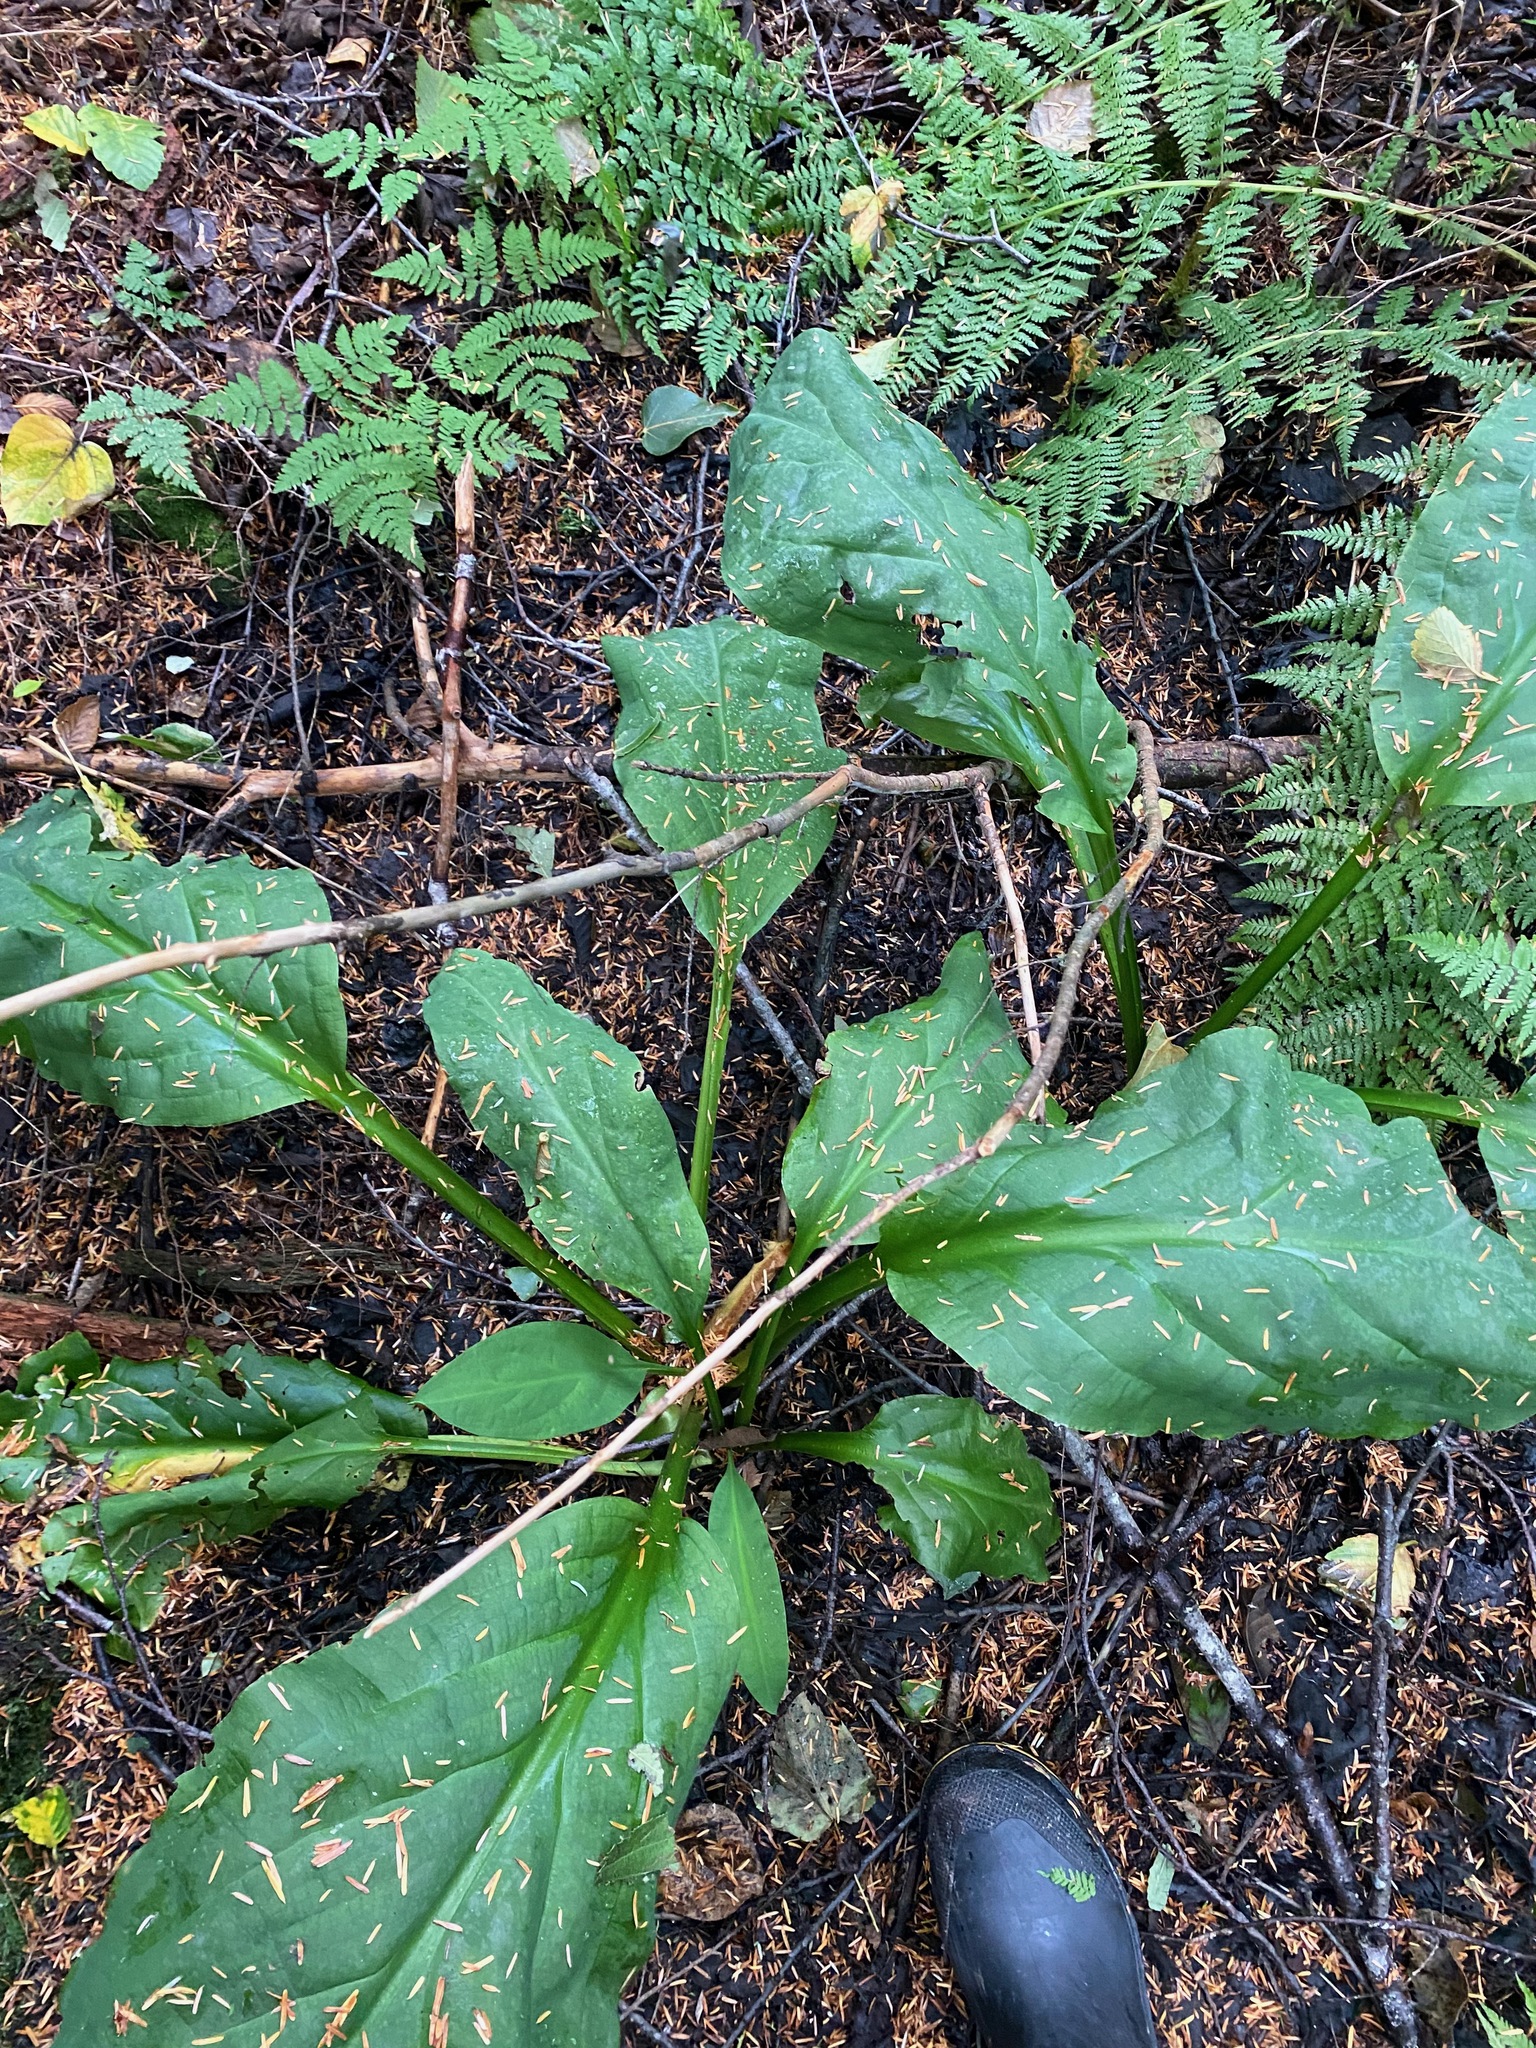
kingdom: Plantae
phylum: Tracheophyta
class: Liliopsida
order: Alismatales
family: Araceae
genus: Lysichiton
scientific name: Lysichiton americanus
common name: American skunk cabbage
